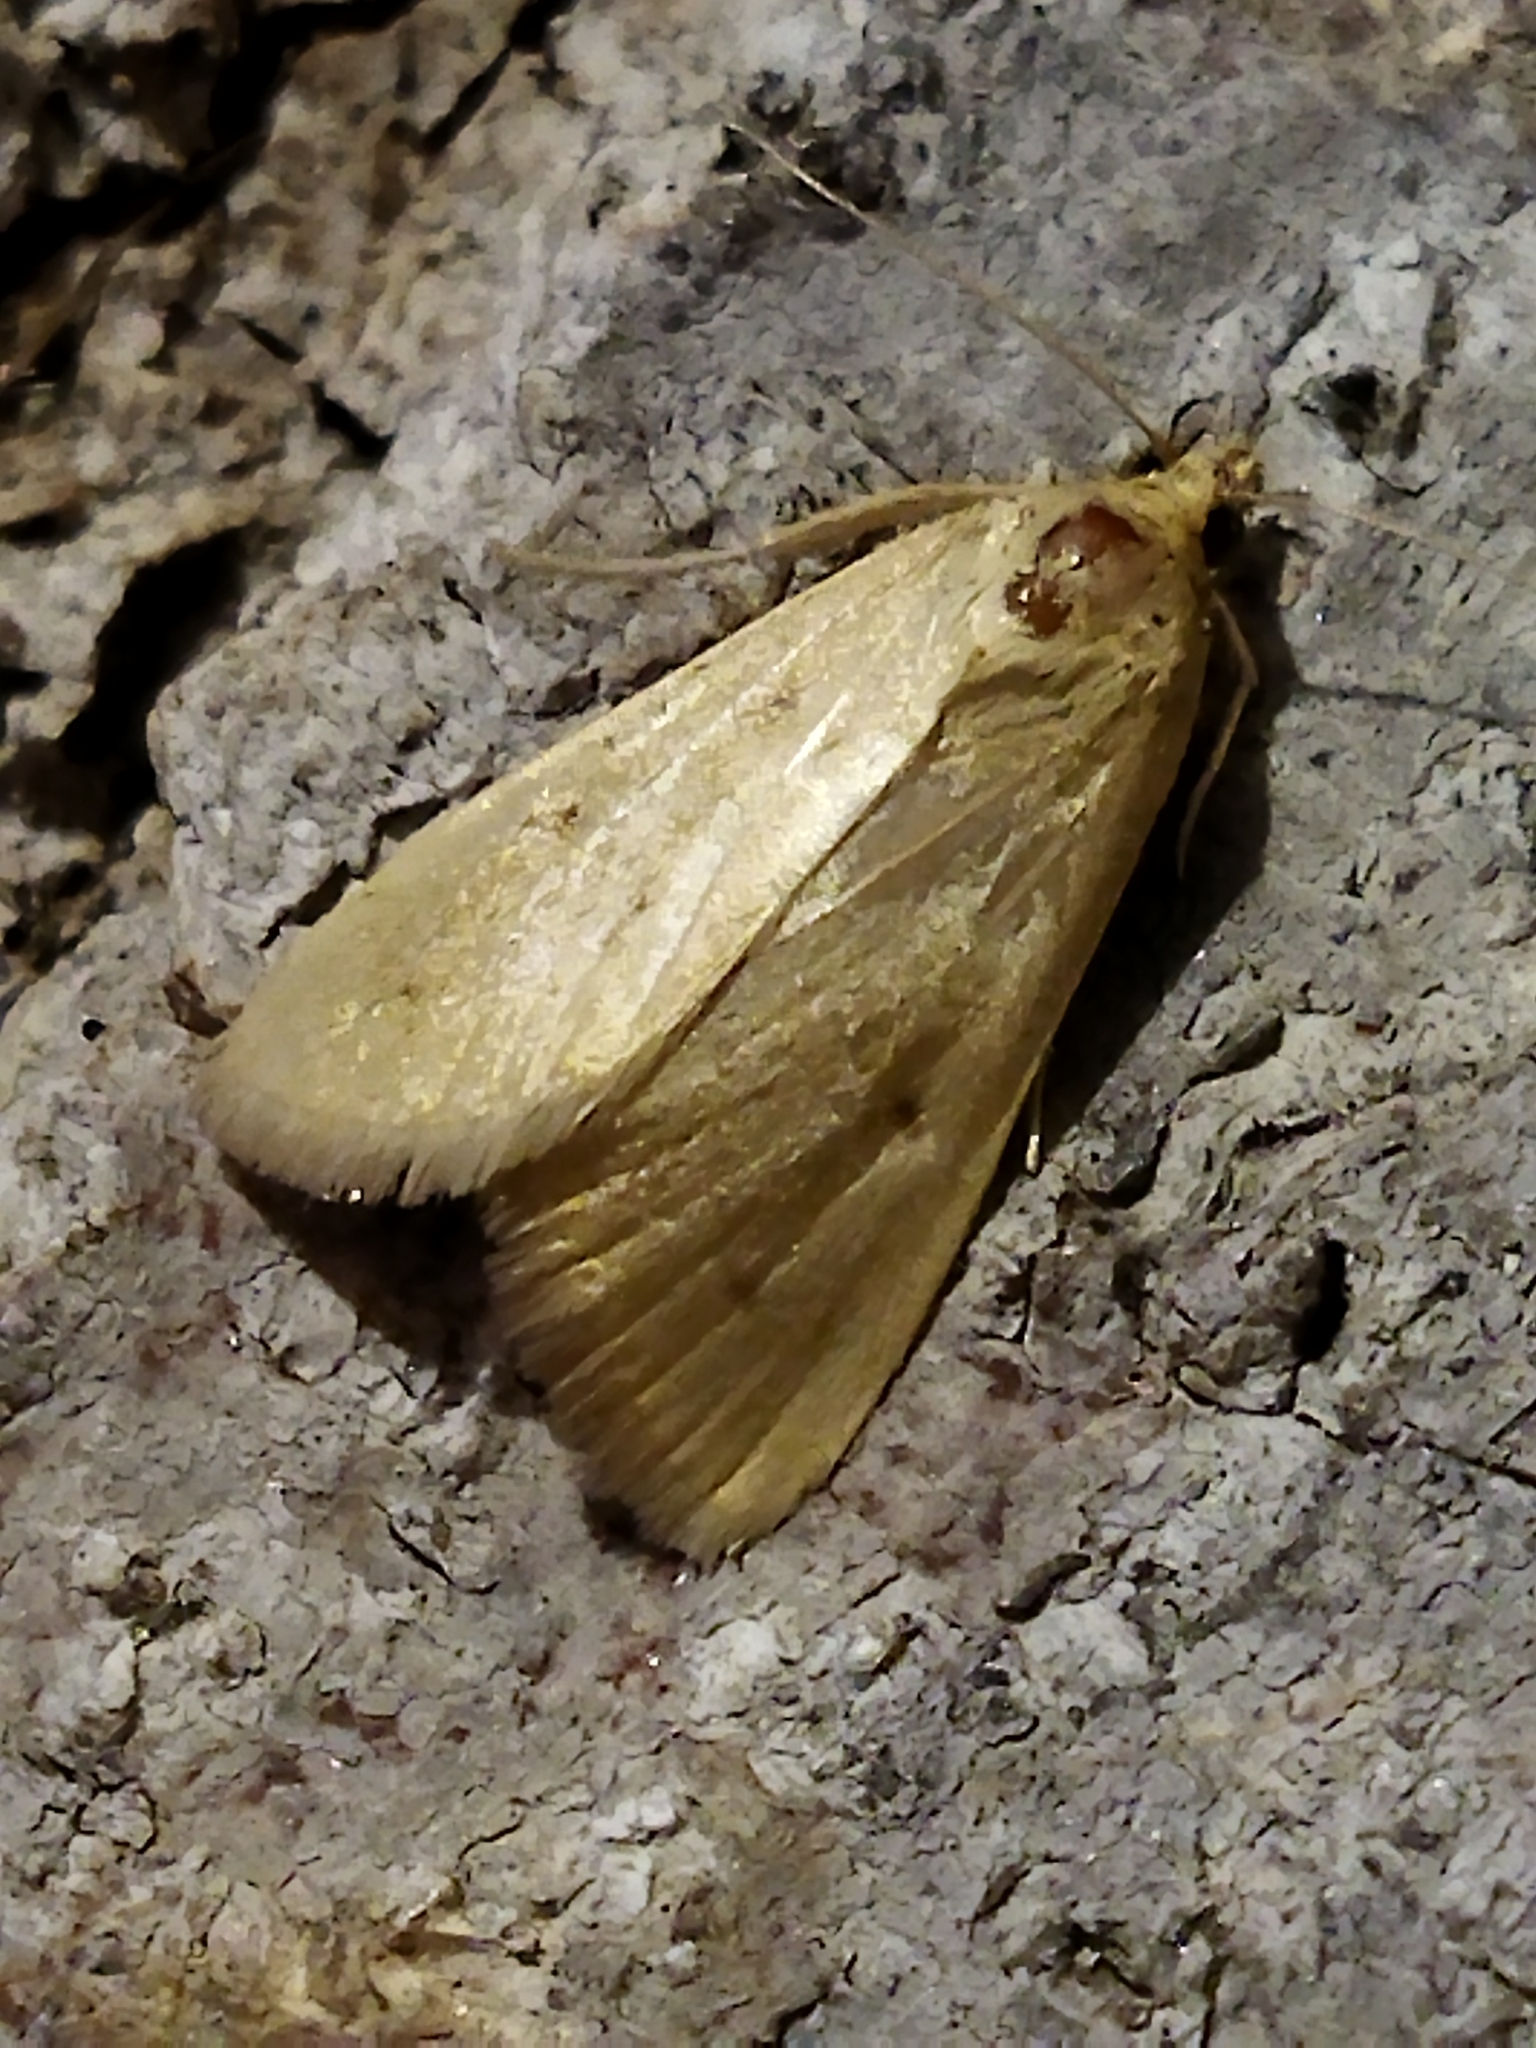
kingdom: Animalia
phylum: Arthropoda
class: Insecta
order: Lepidoptera
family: Crambidae
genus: Achyra
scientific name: Achyra nudalis
